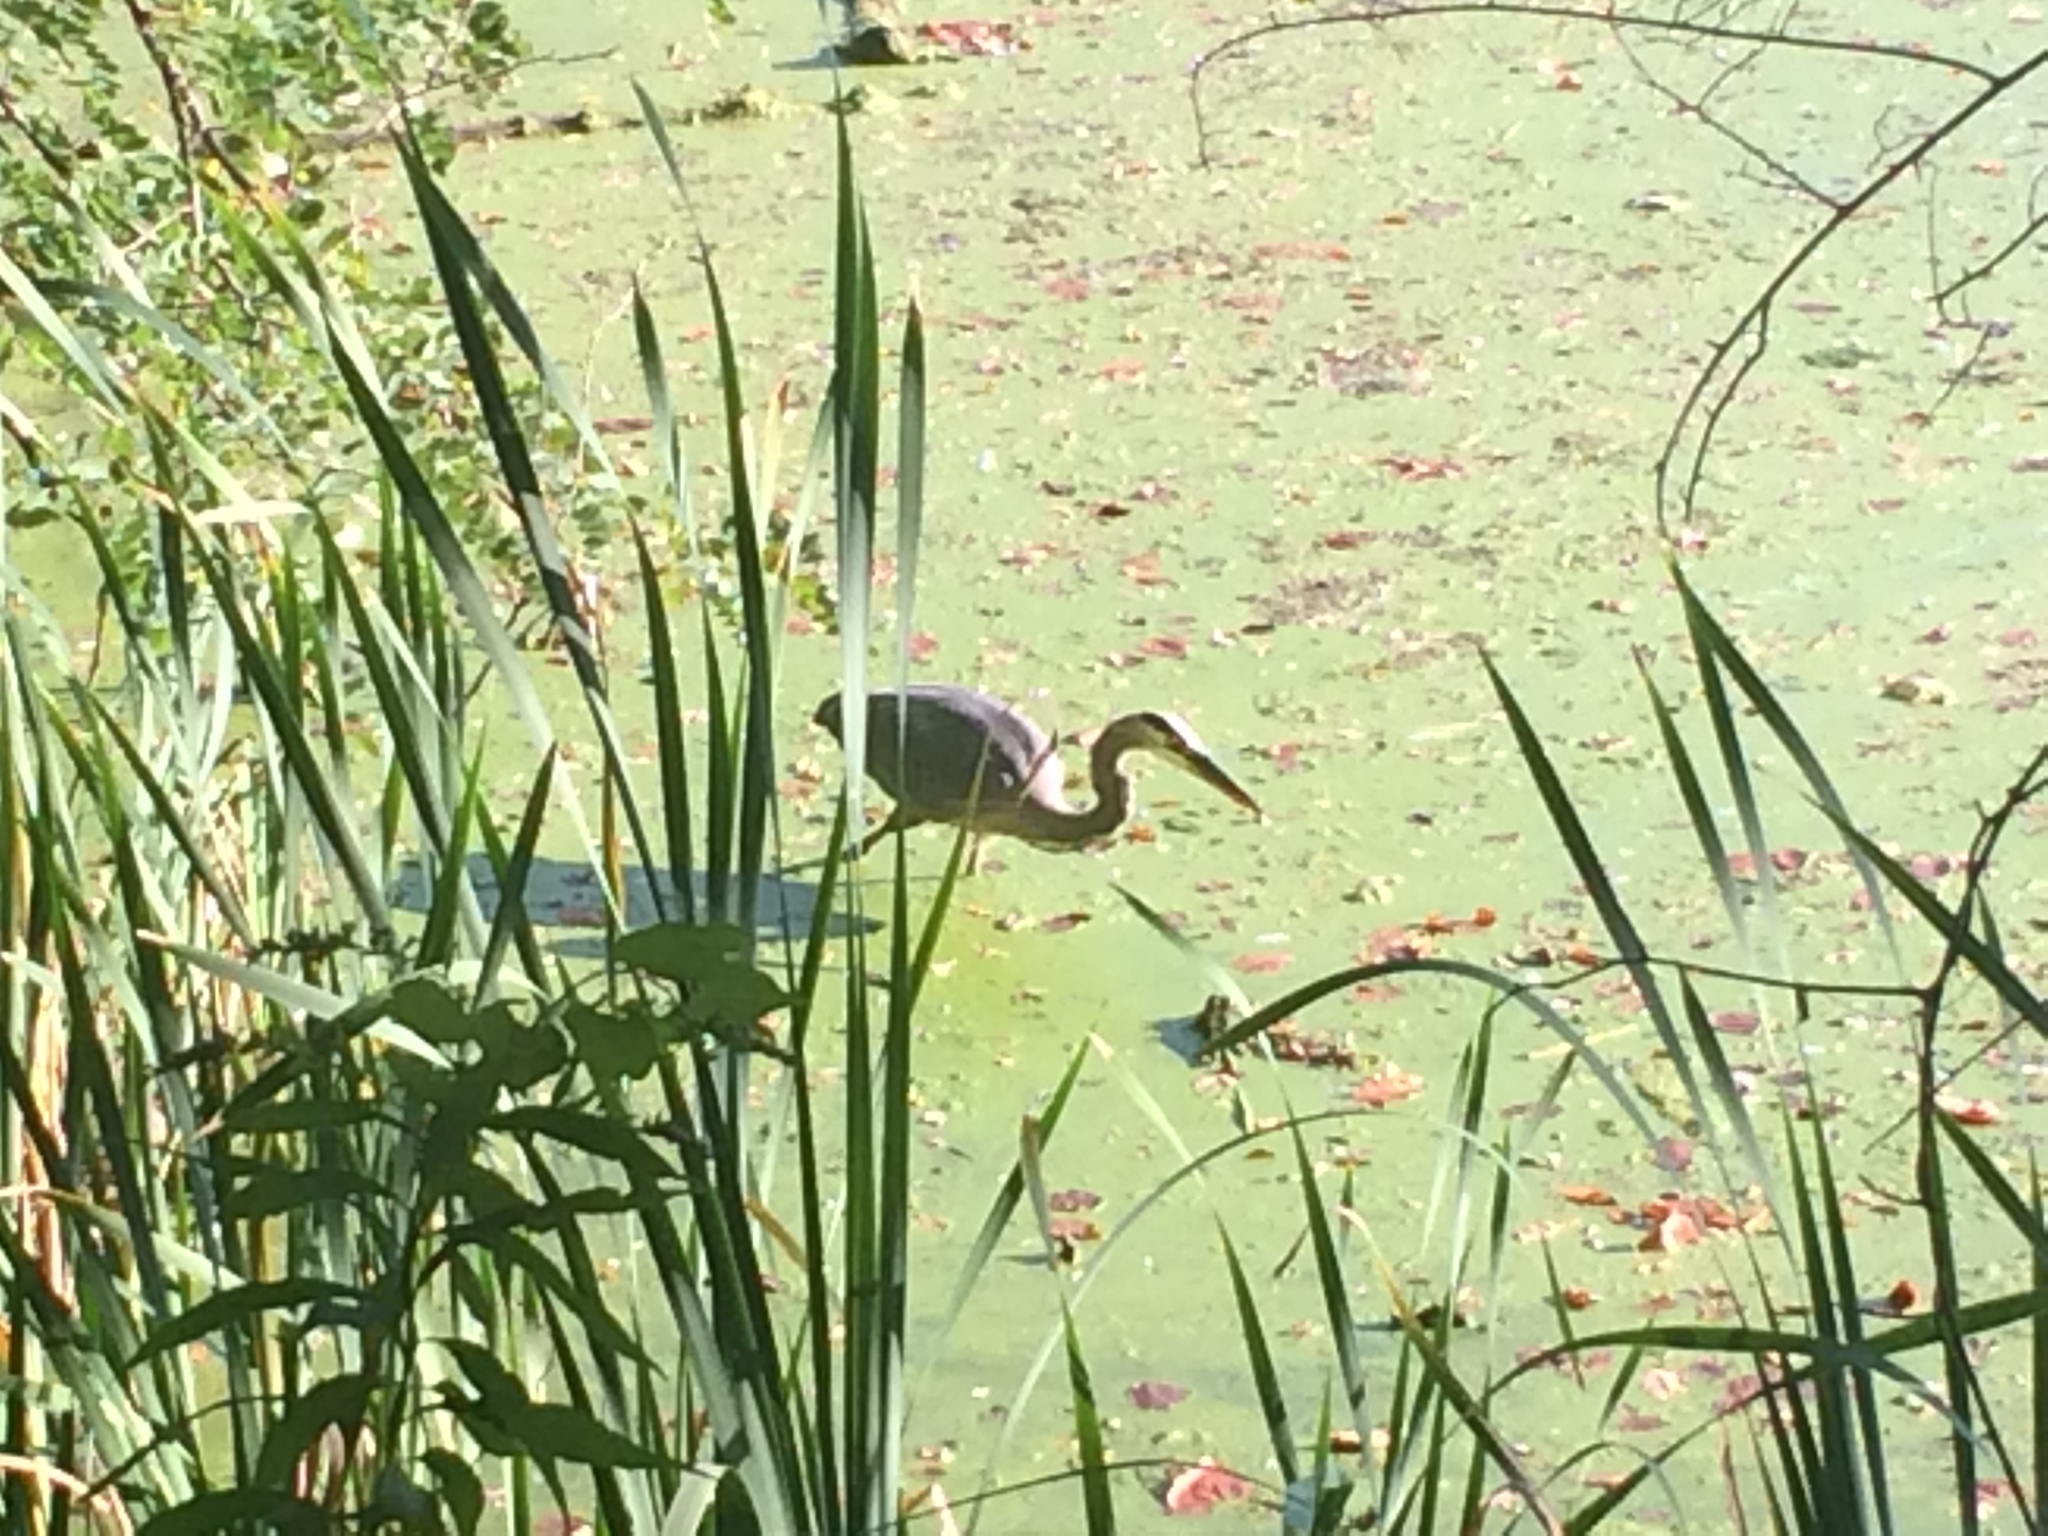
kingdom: Animalia
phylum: Chordata
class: Aves
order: Pelecaniformes
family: Ardeidae
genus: Ardea
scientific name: Ardea herodias
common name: Great blue heron
